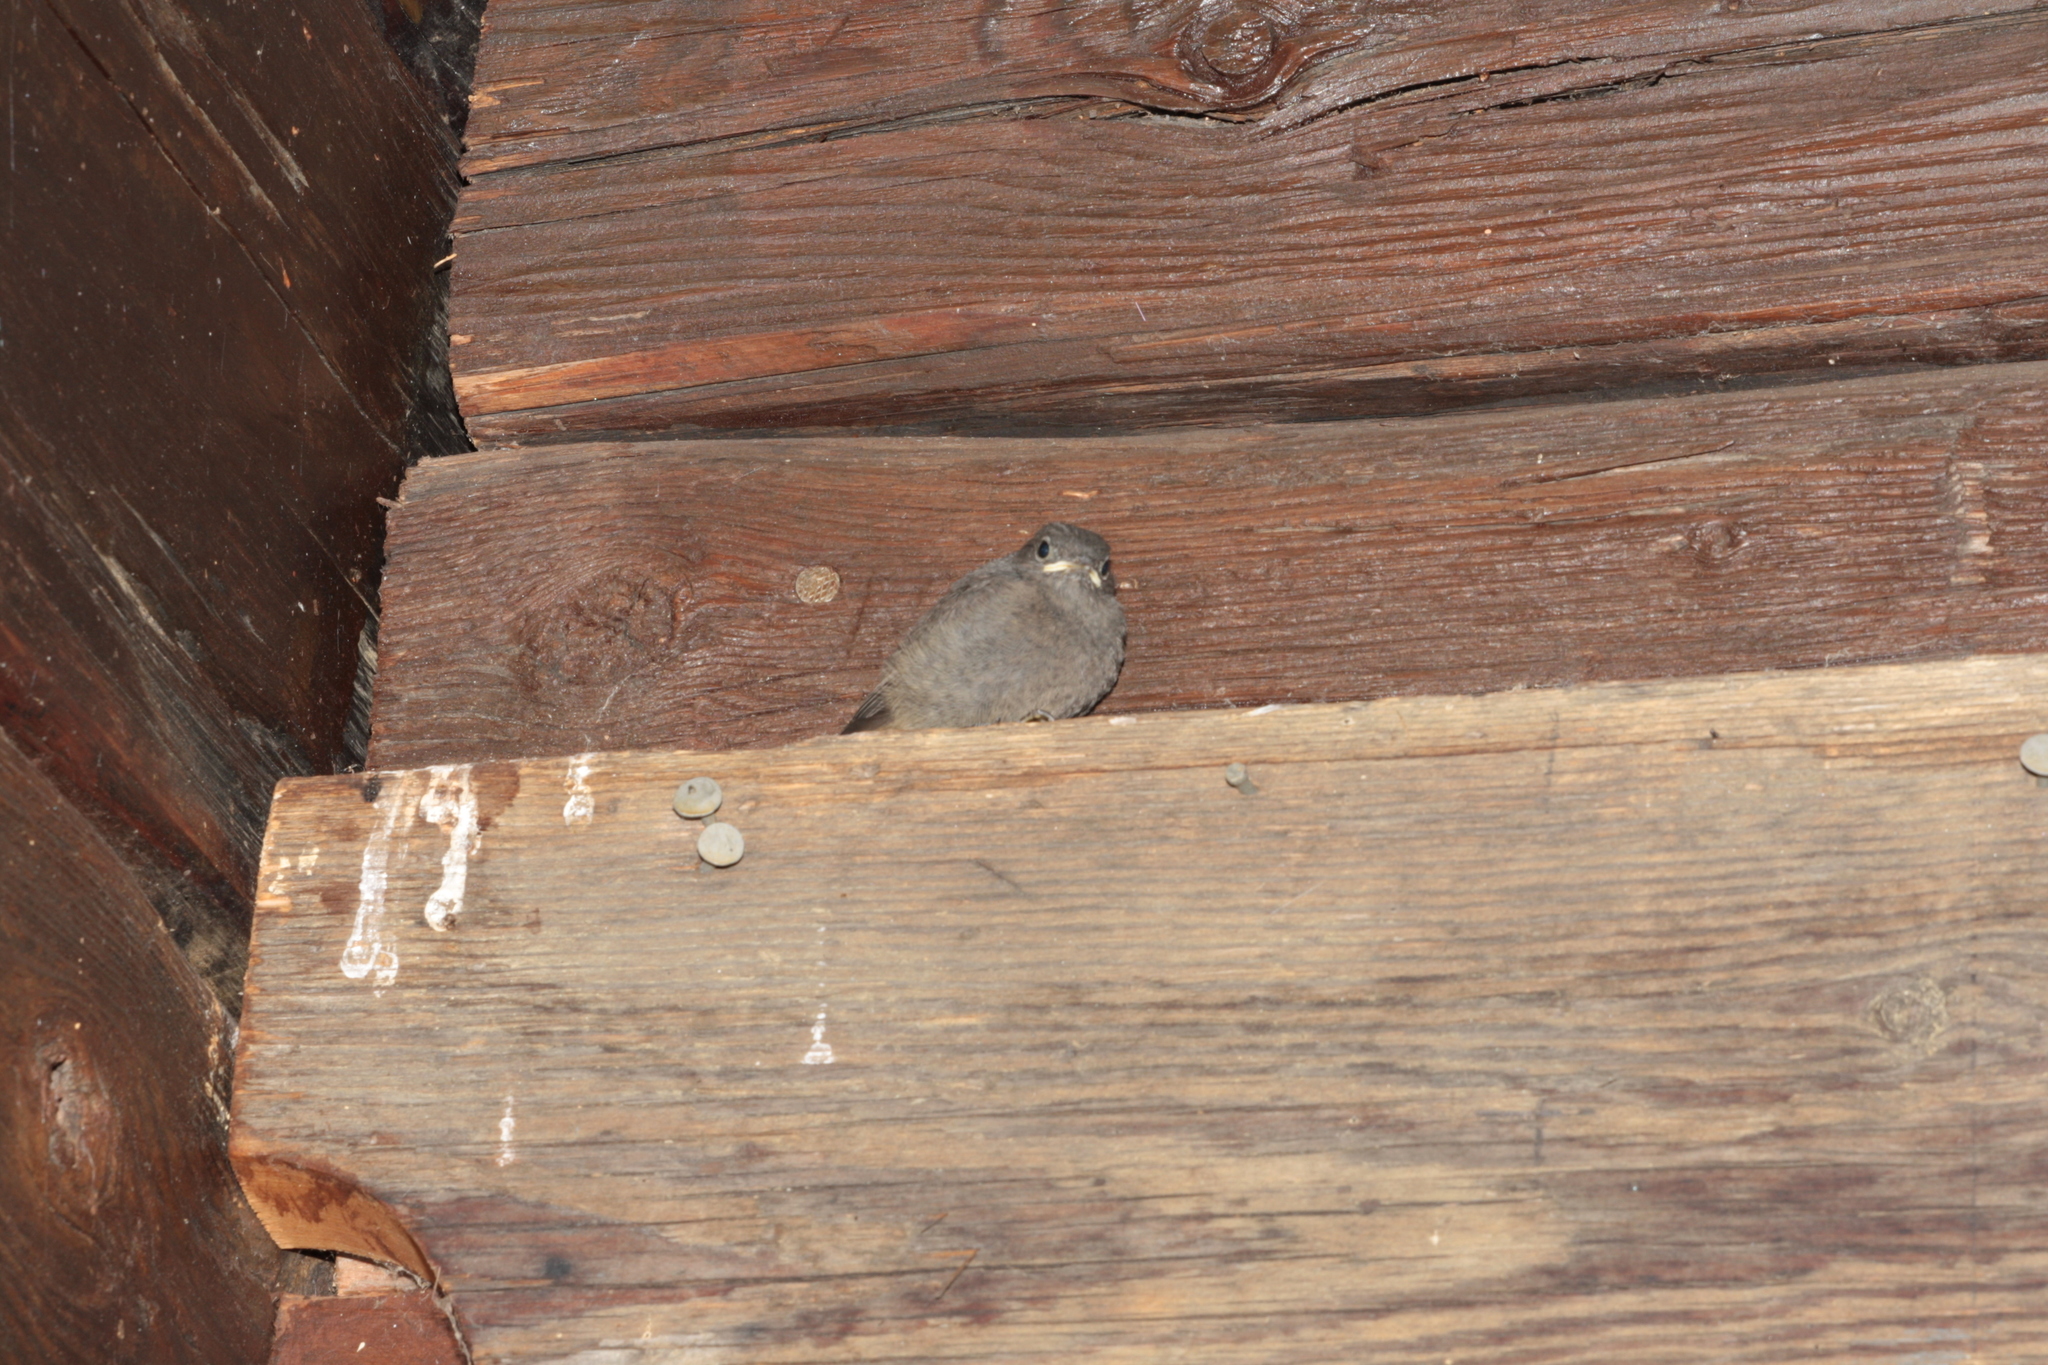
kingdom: Animalia
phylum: Chordata
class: Aves
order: Passeriformes
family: Muscicapidae
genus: Phoenicurus
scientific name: Phoenicurus ochruros
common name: Black redstart
